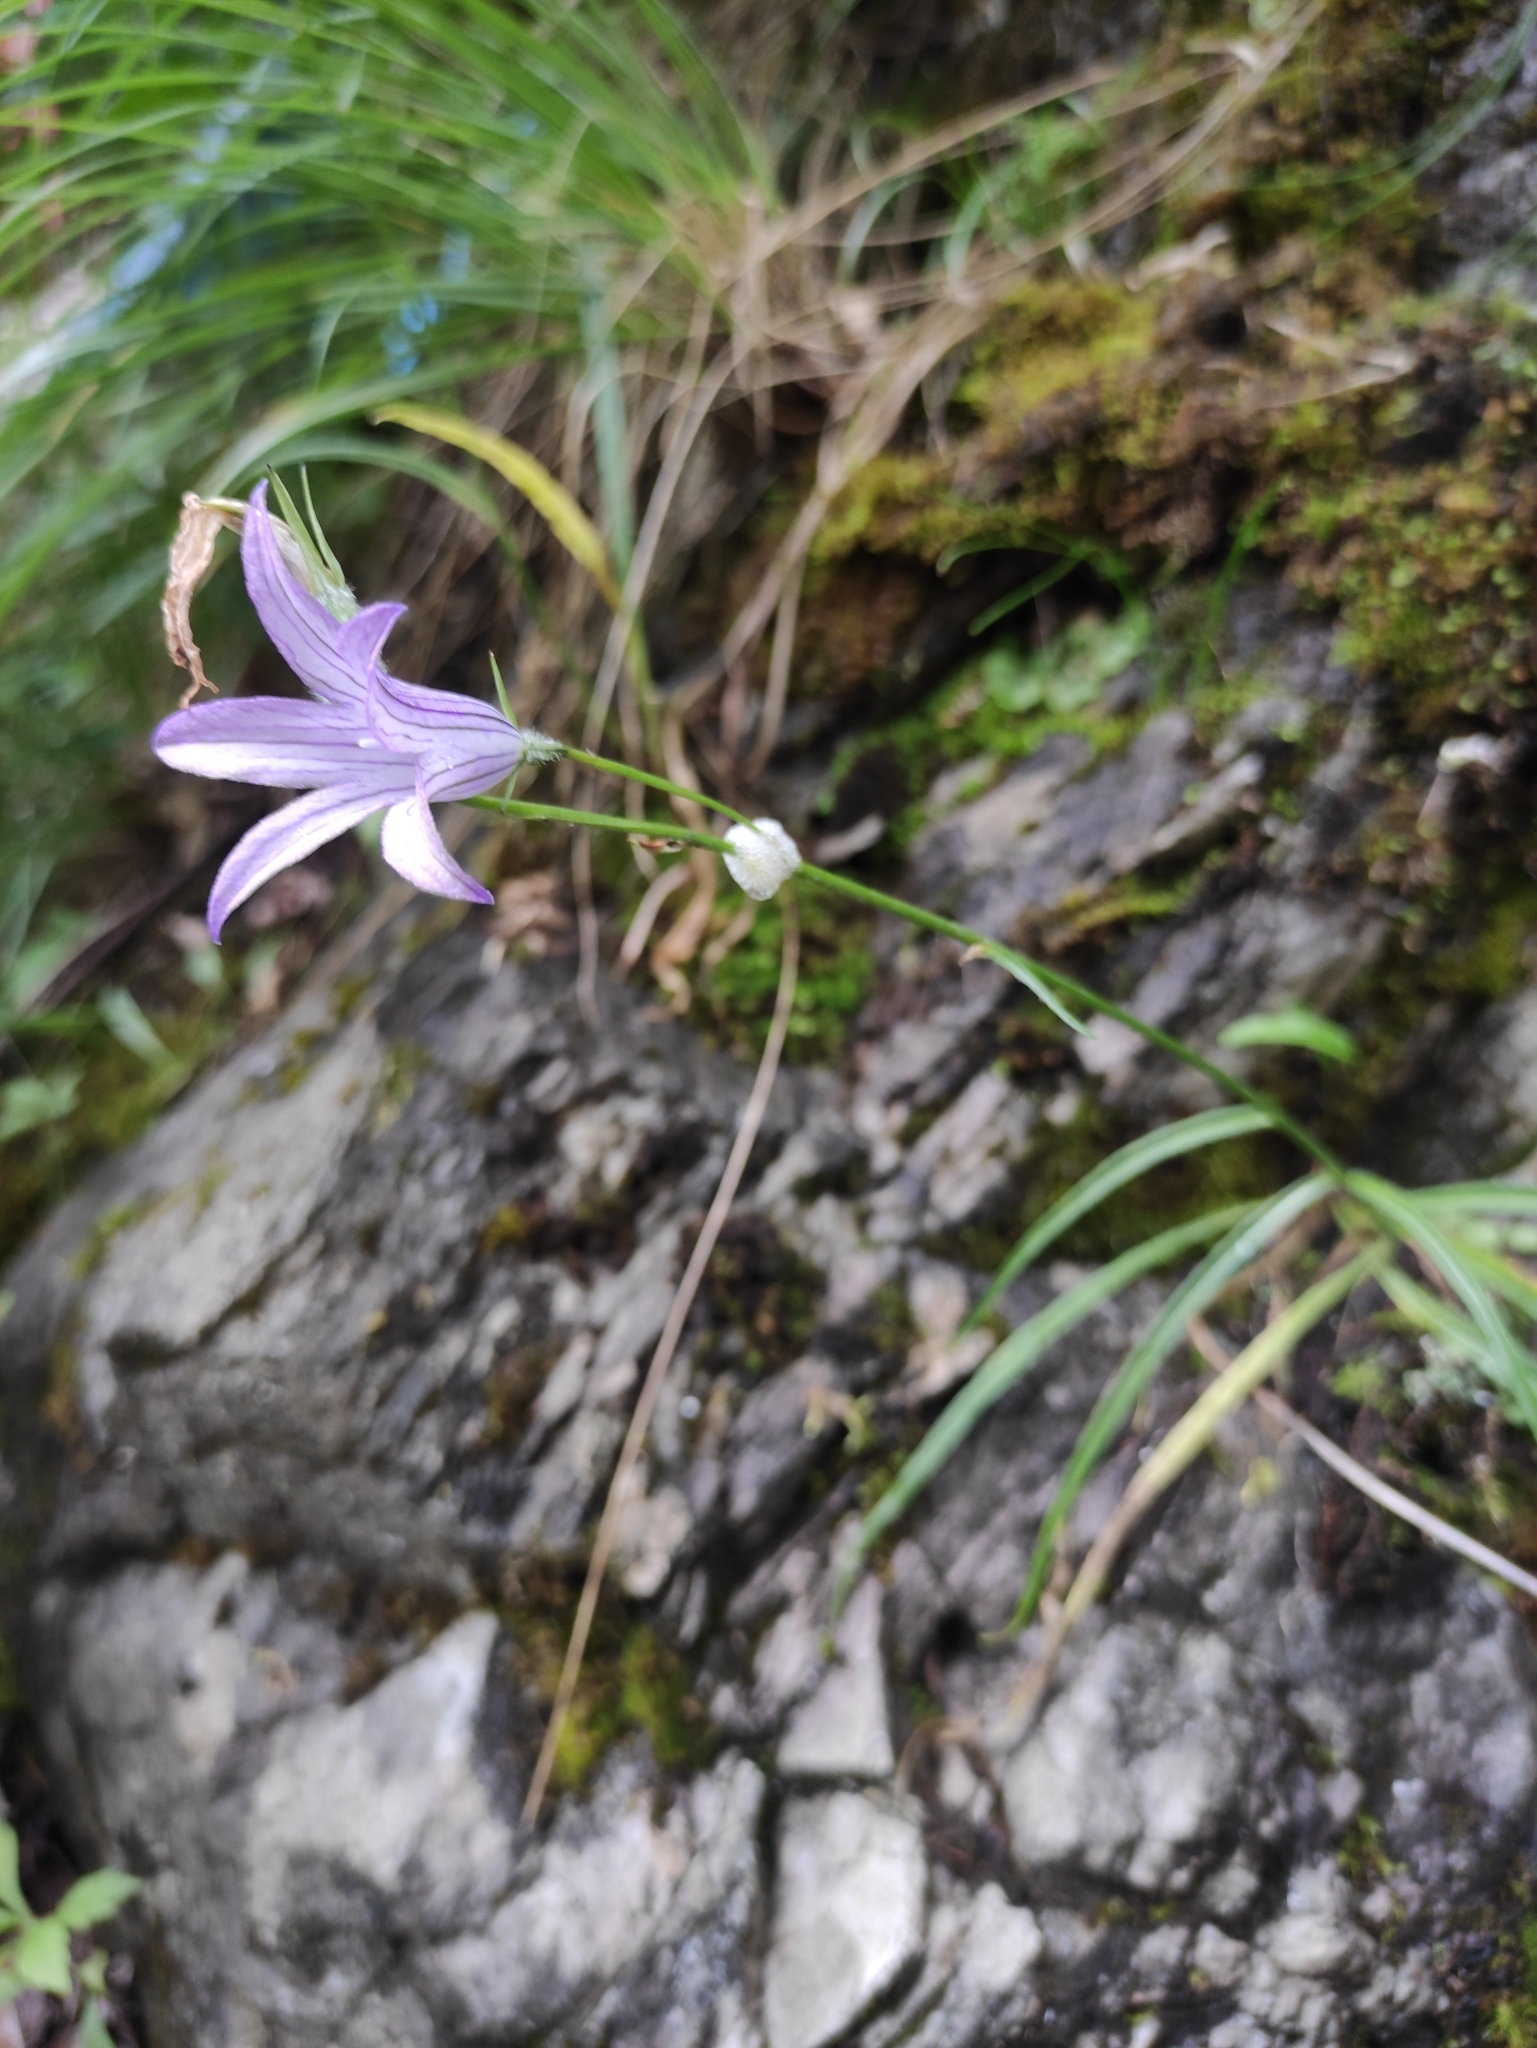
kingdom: Plantae
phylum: Tracheophyta
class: Magnoliopsida
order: Asterales
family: Campanulaceae
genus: Campanula
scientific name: Campanula stevenii
